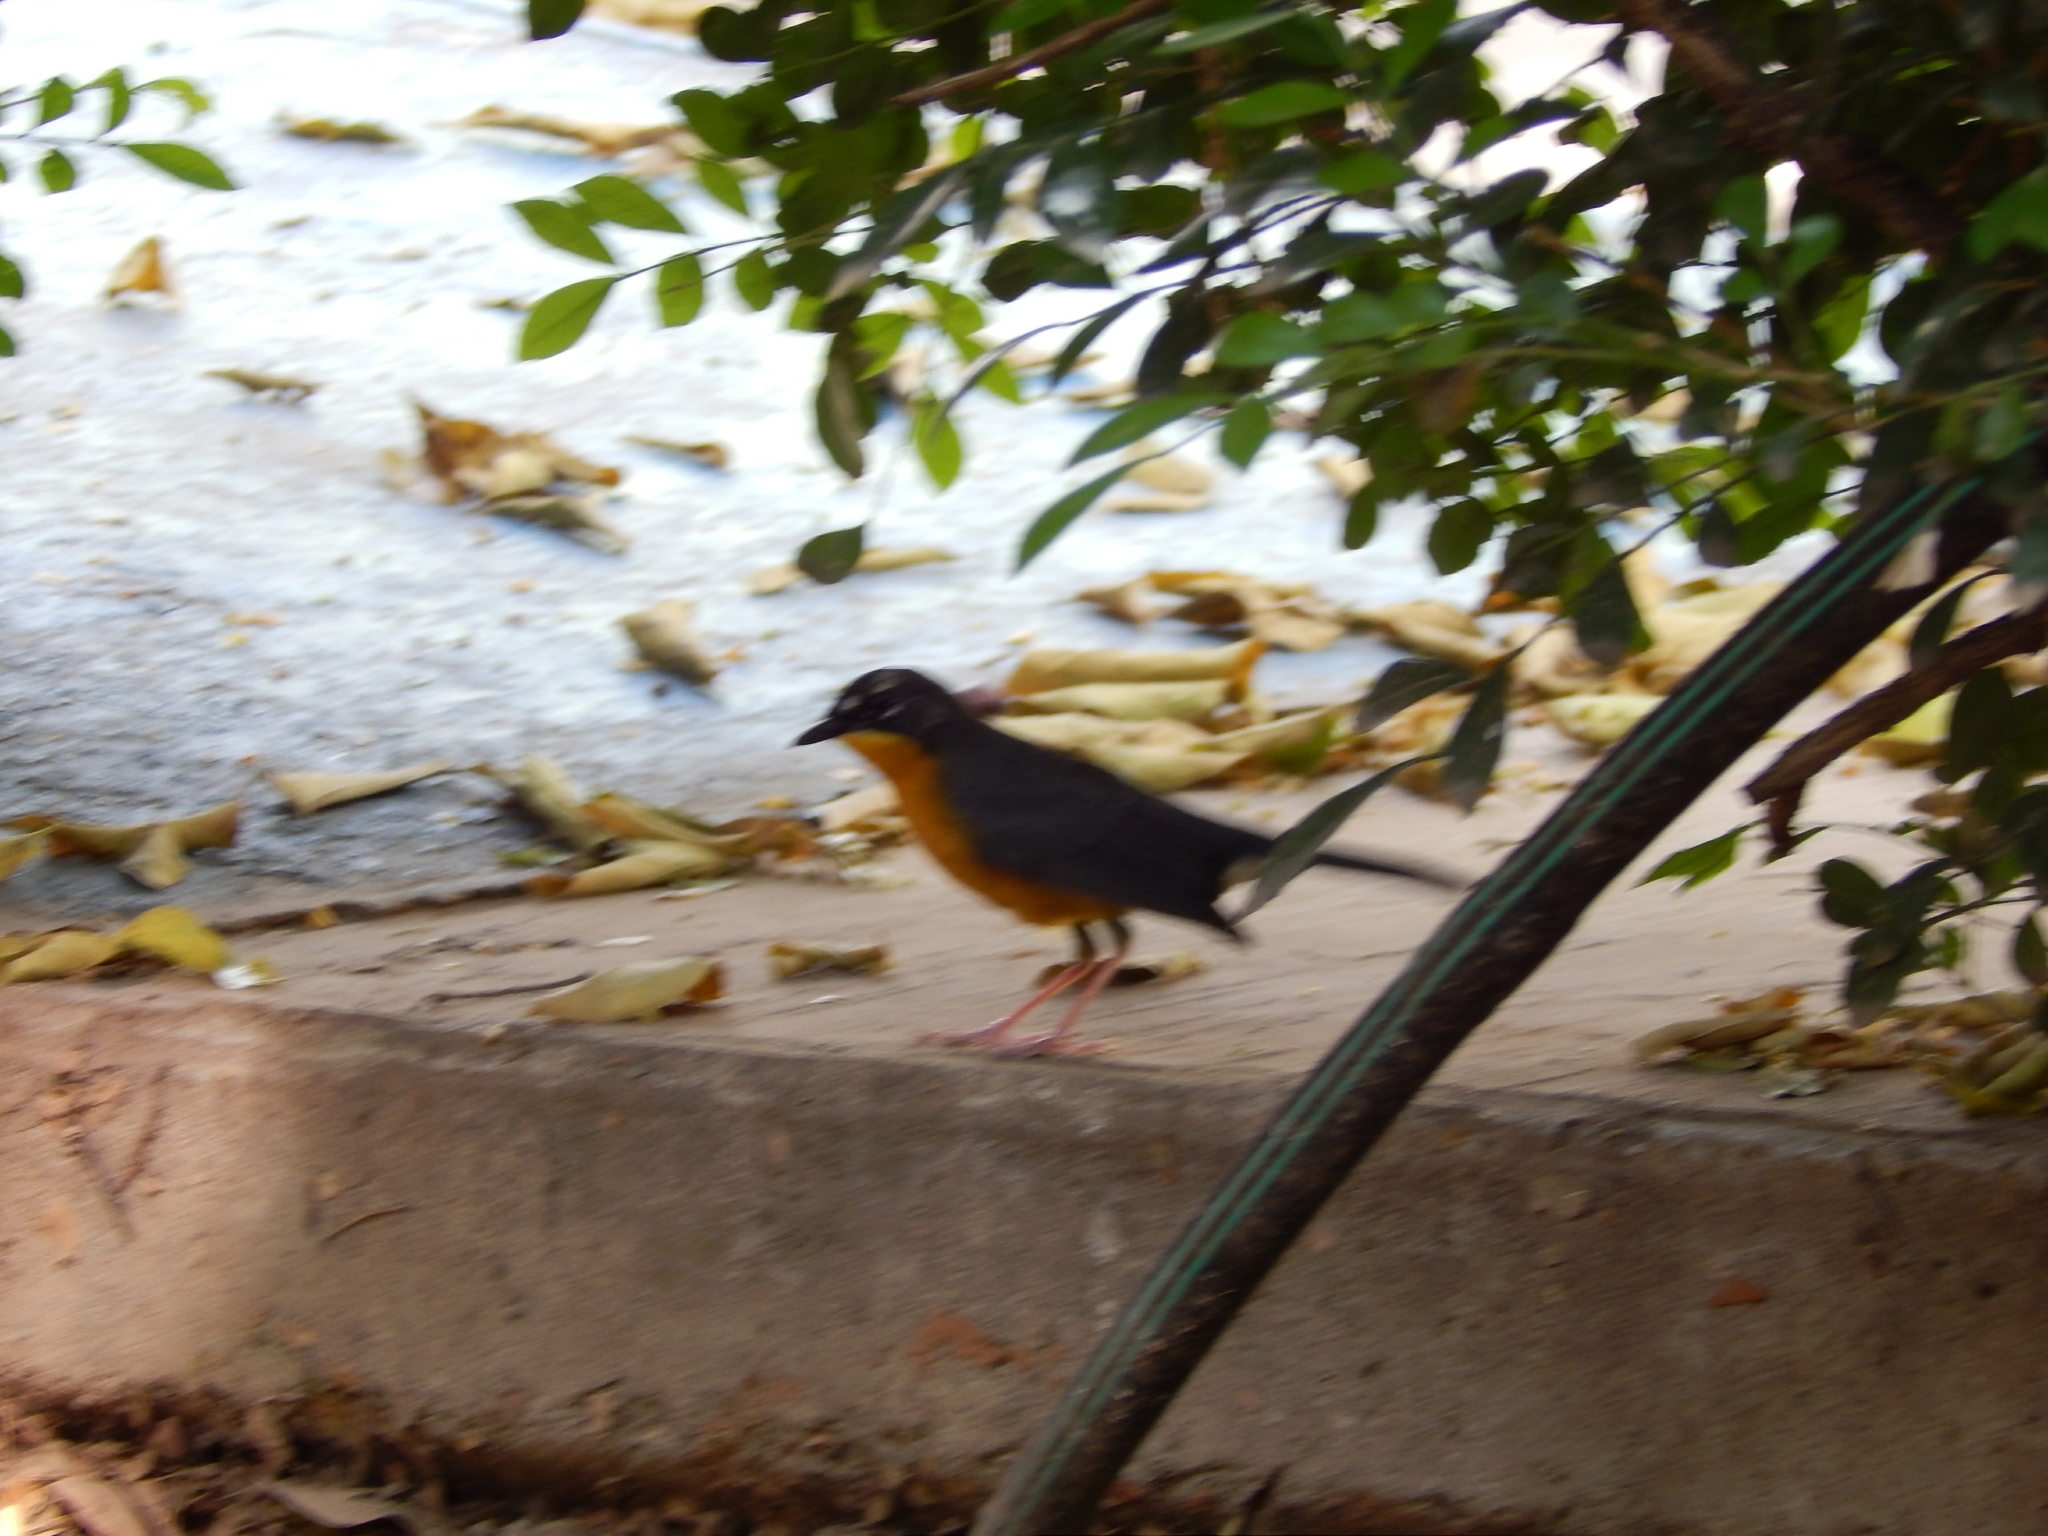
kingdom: Animalia
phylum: Chordata
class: Aves
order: Passeriformes
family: Parulidae
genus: Basileuterus
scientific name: Basileuterus lachrymosus
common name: Fan-tailed warbler
